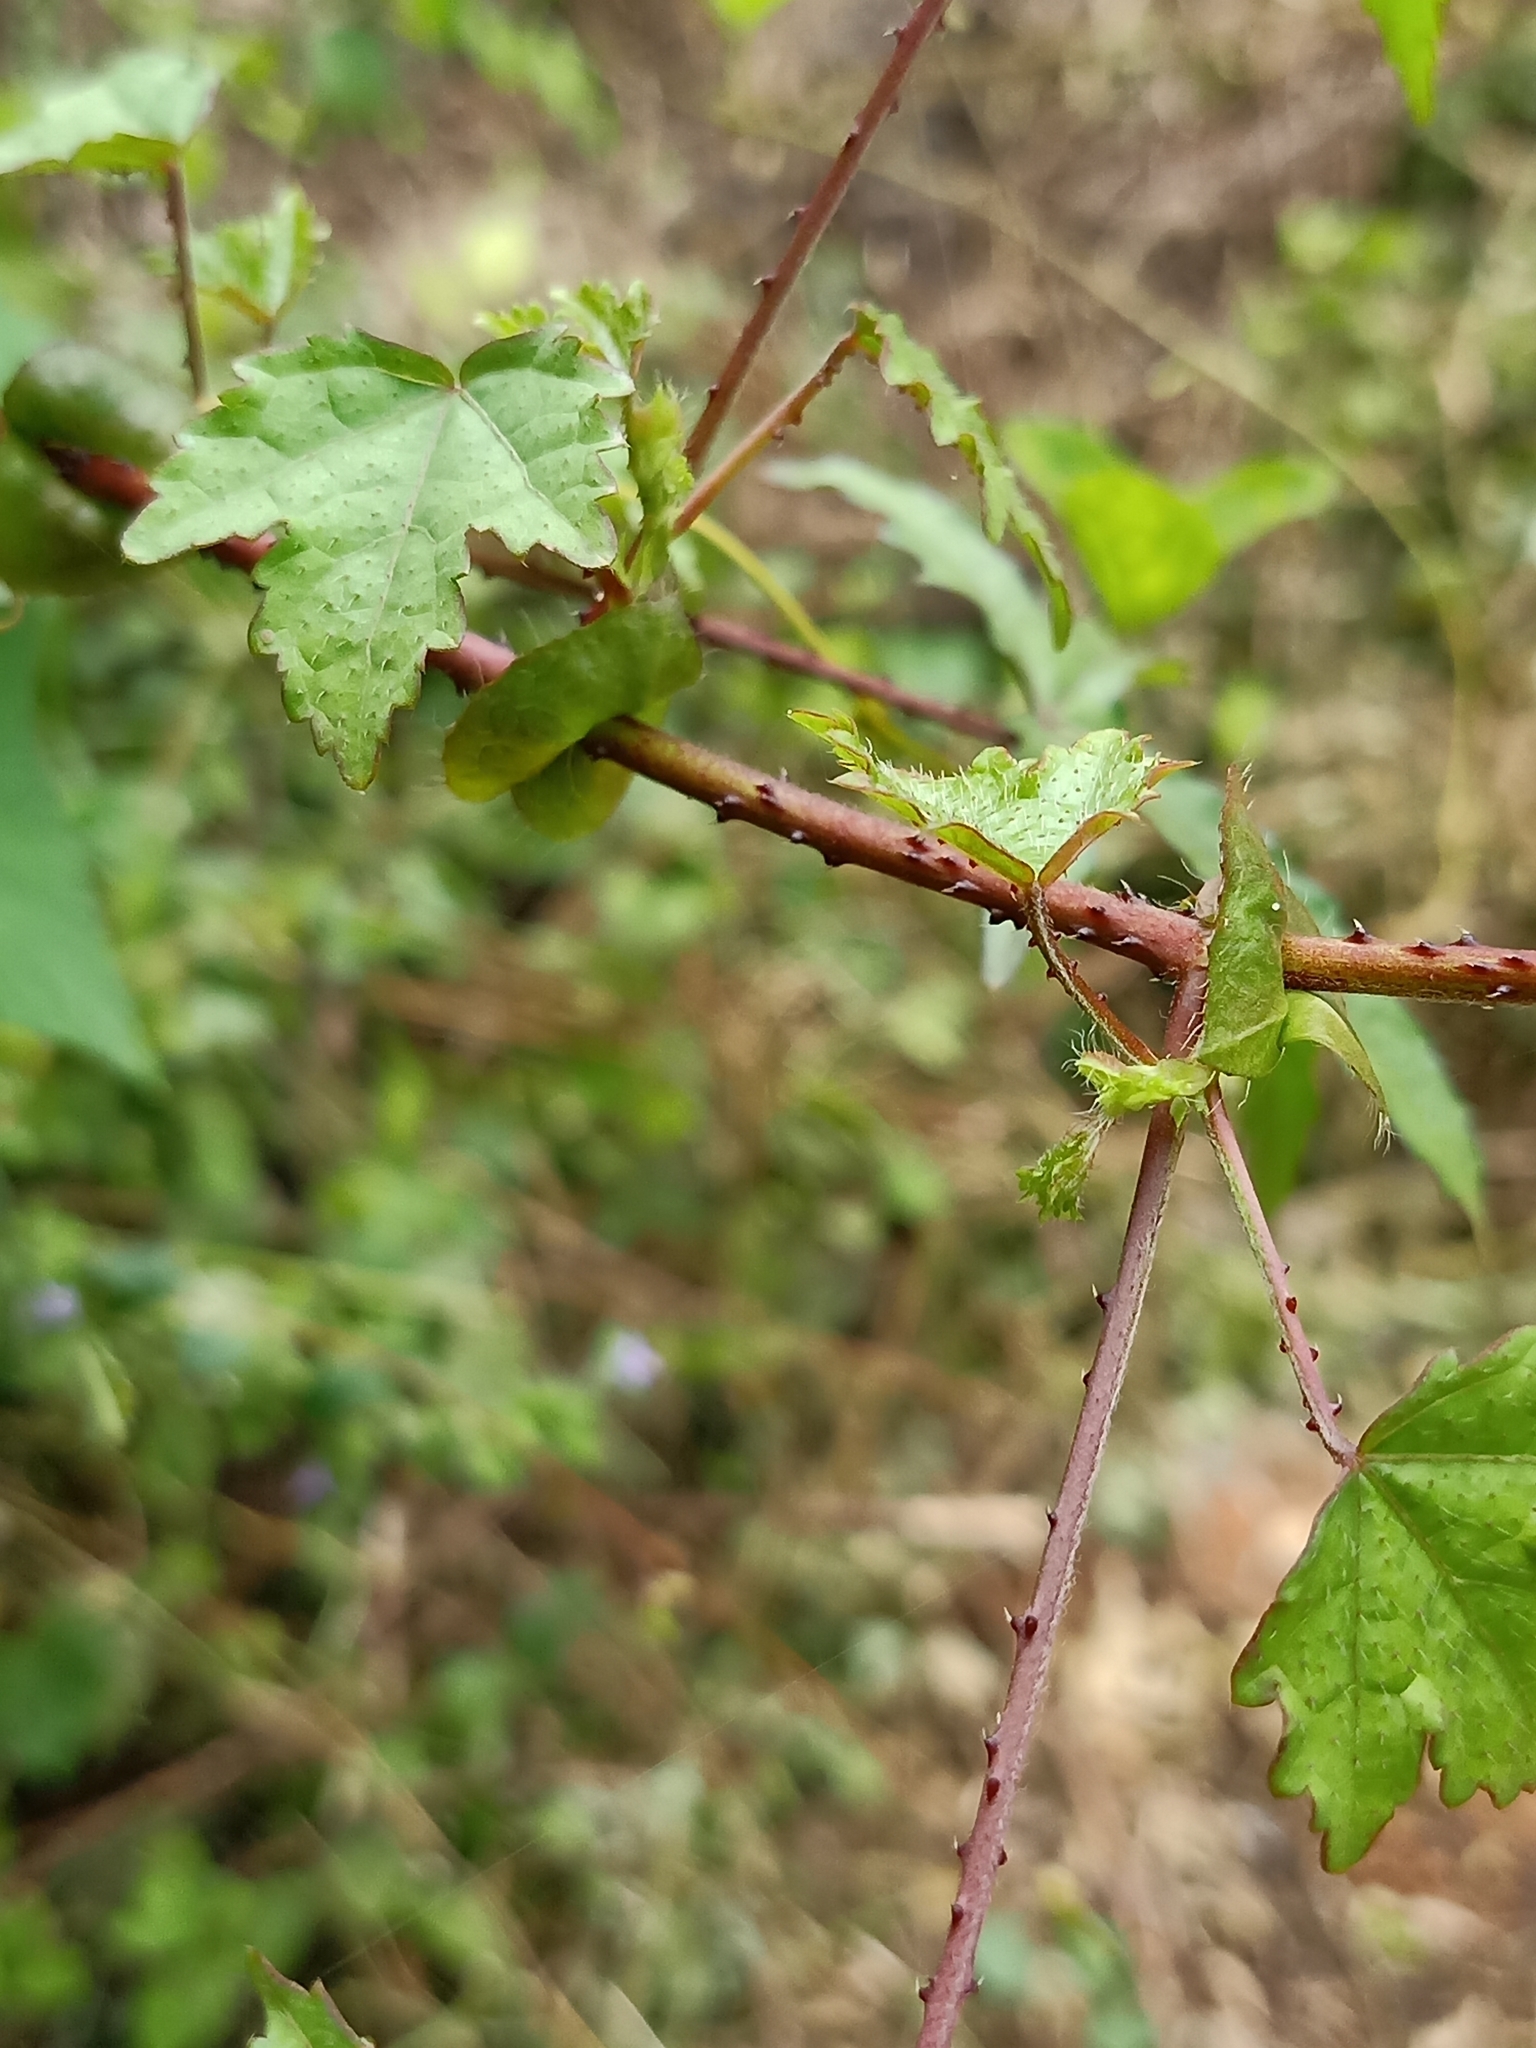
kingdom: Plantae
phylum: Tracheophyta
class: Magnoliopsida
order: Malvales
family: Malvaceae
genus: Hibiscus
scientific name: Hibiscus surattensis
